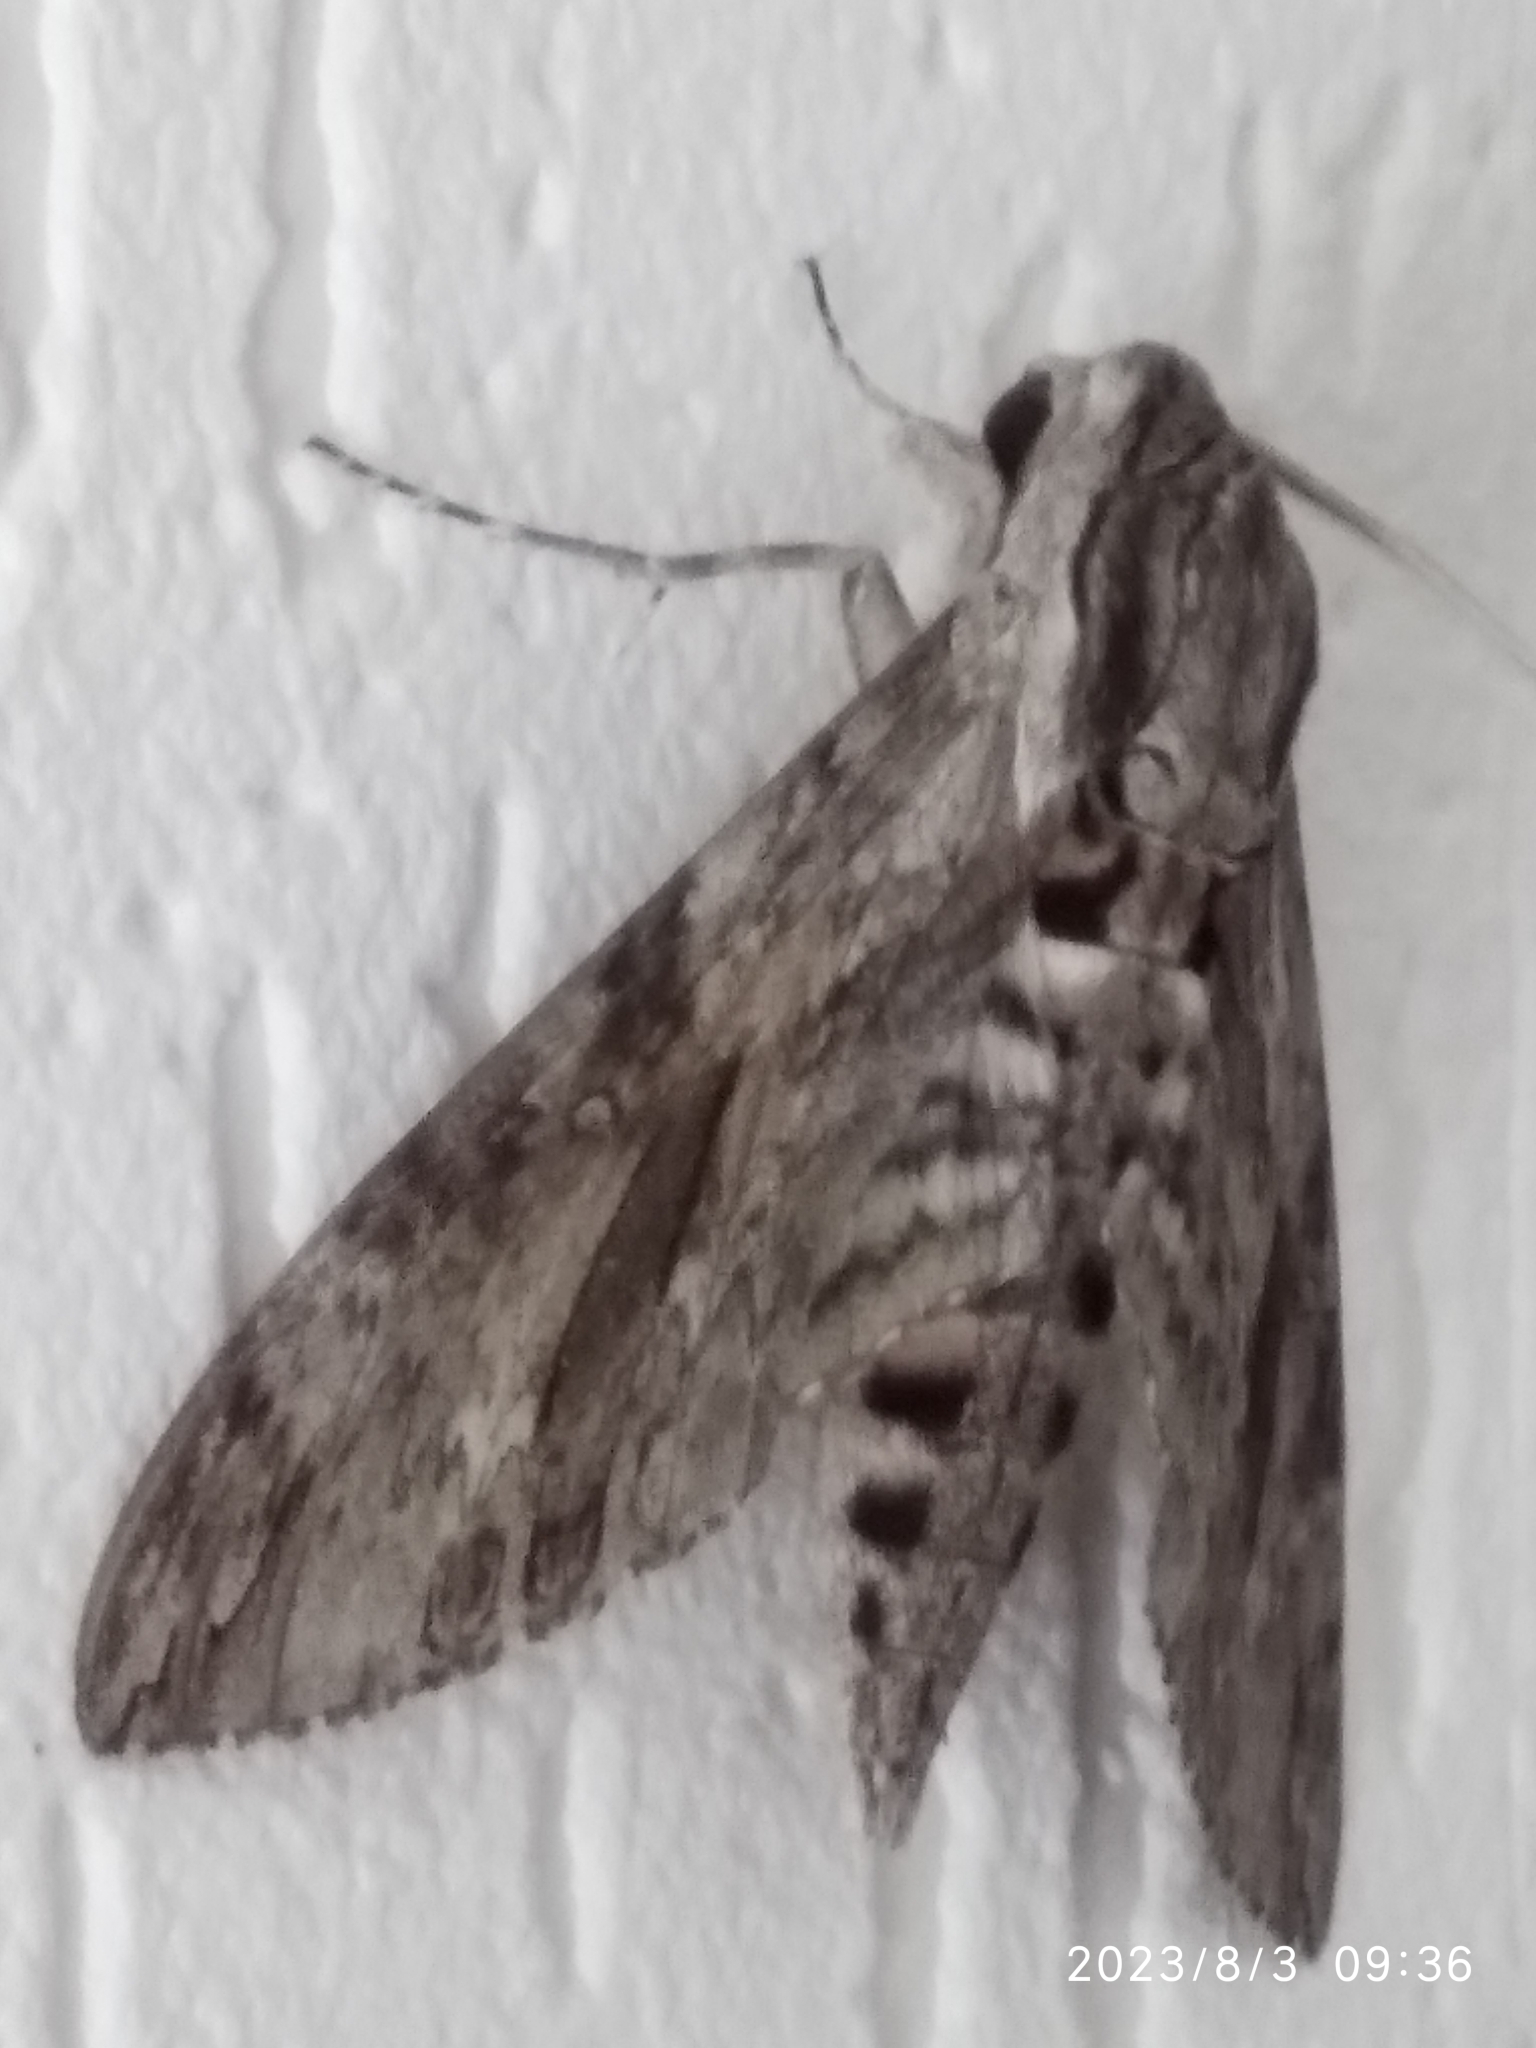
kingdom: Animalia
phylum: Arthropoda
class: Insecta
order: Lepidoptera
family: Sphingidae
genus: Agrius
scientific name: Agrius convolvuli
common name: Convolvulus hawkmoth
